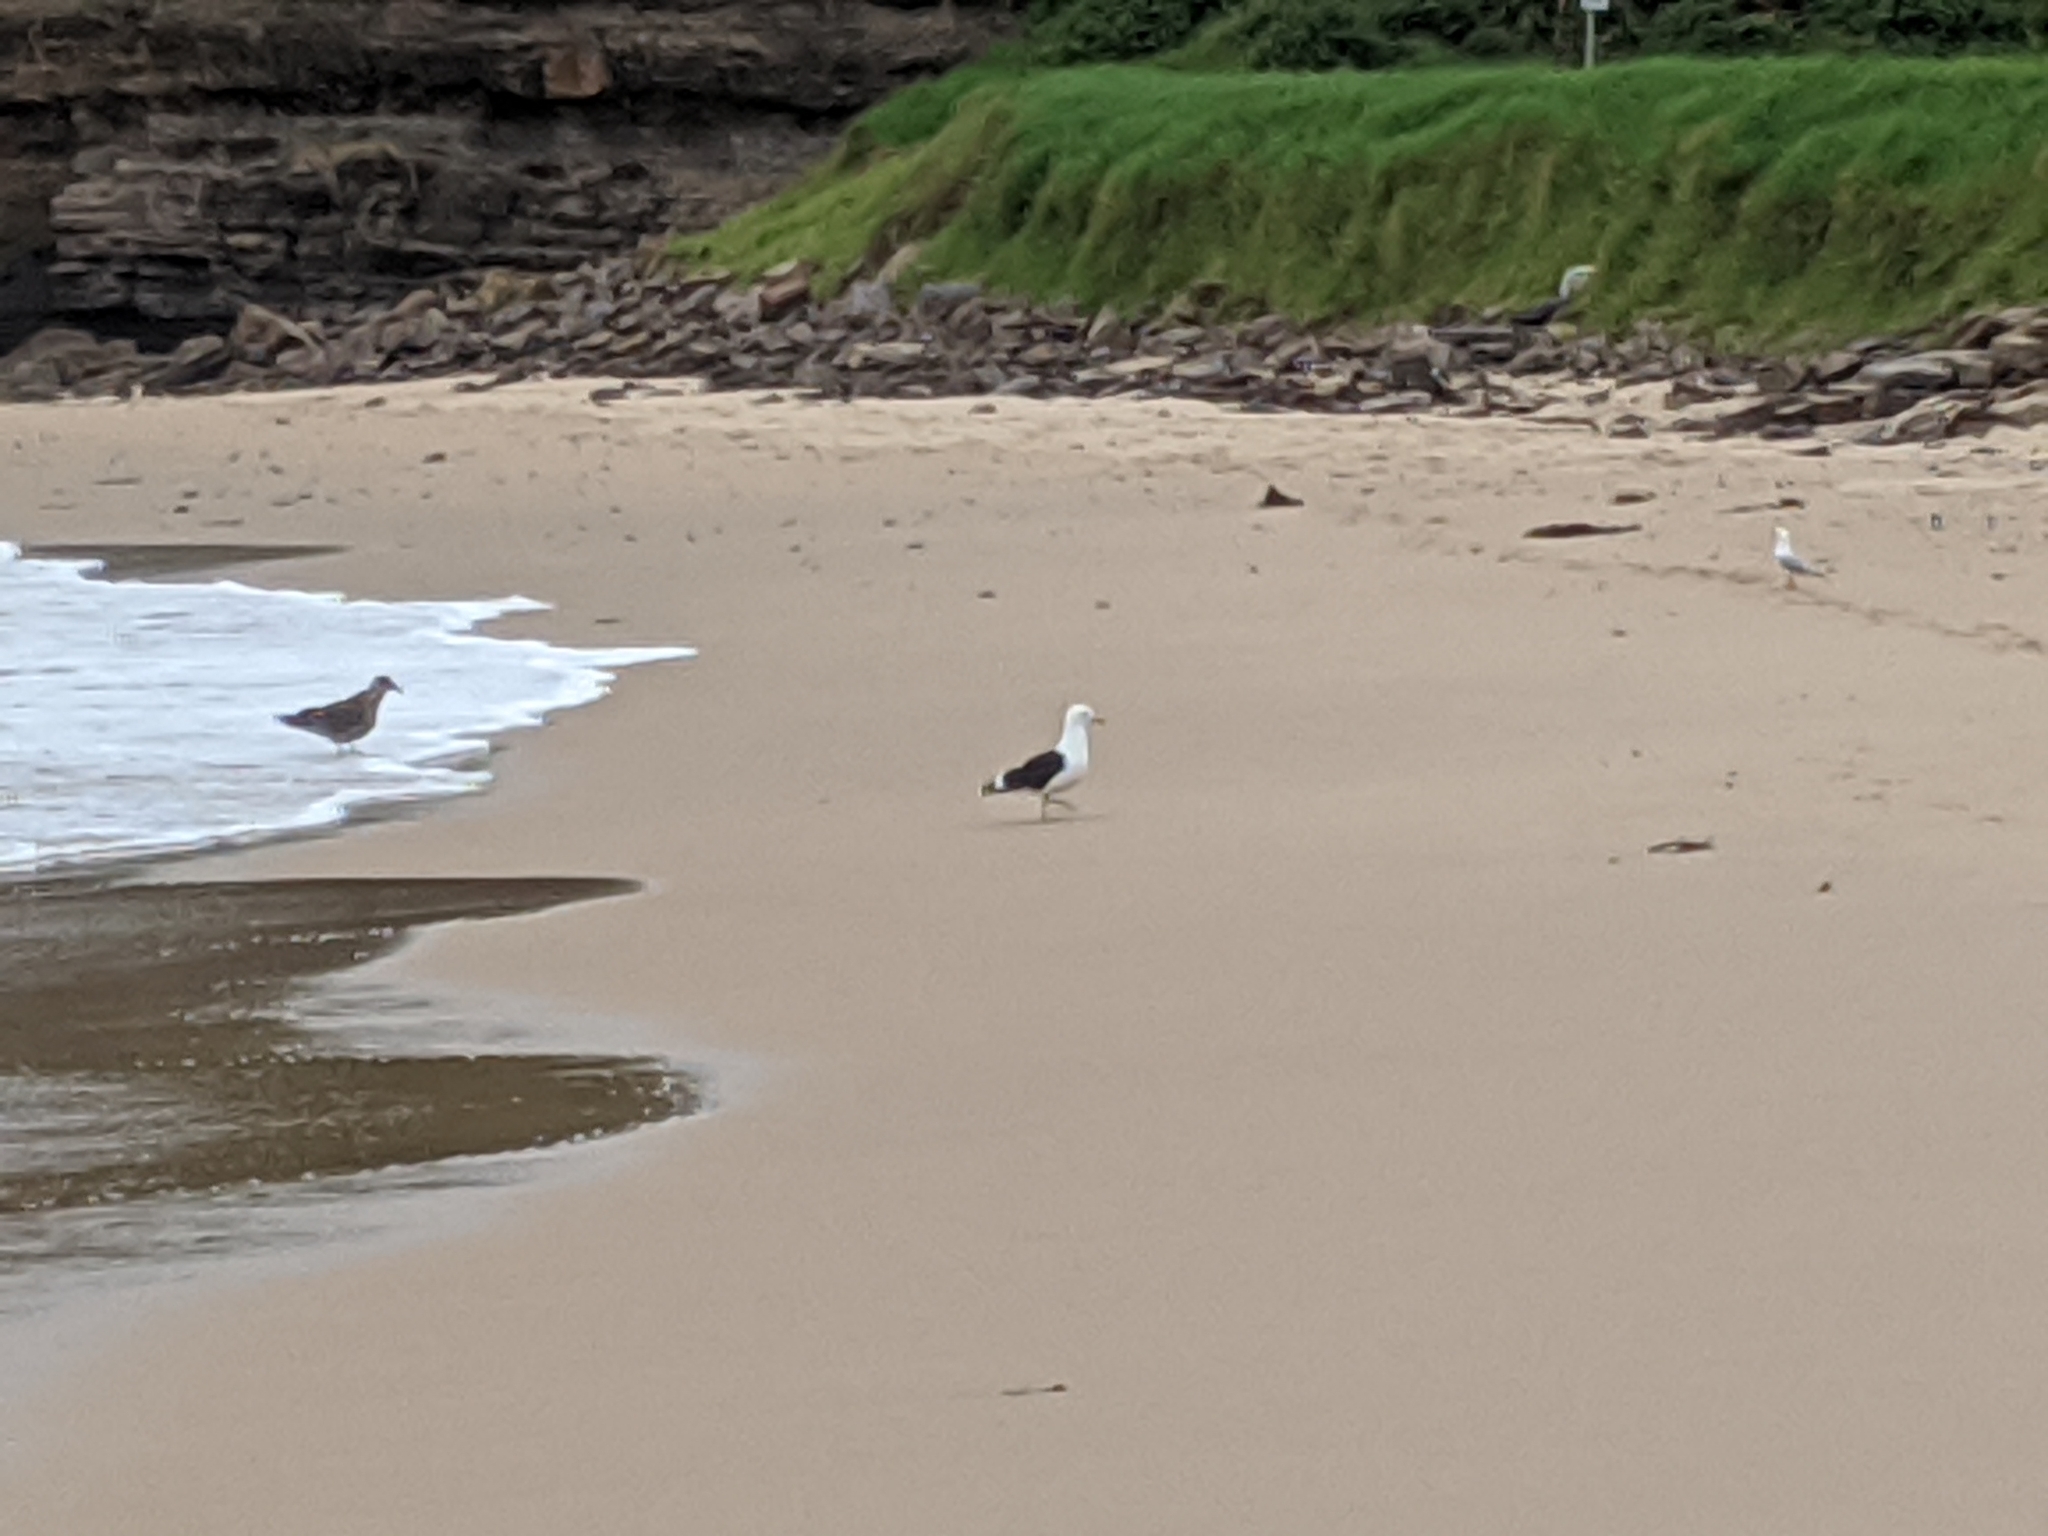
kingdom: Animalia
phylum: Chordata
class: Aves
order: Charadriiformes
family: Laridae
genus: Larus
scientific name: Larus dominicanus
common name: Kelp gull
